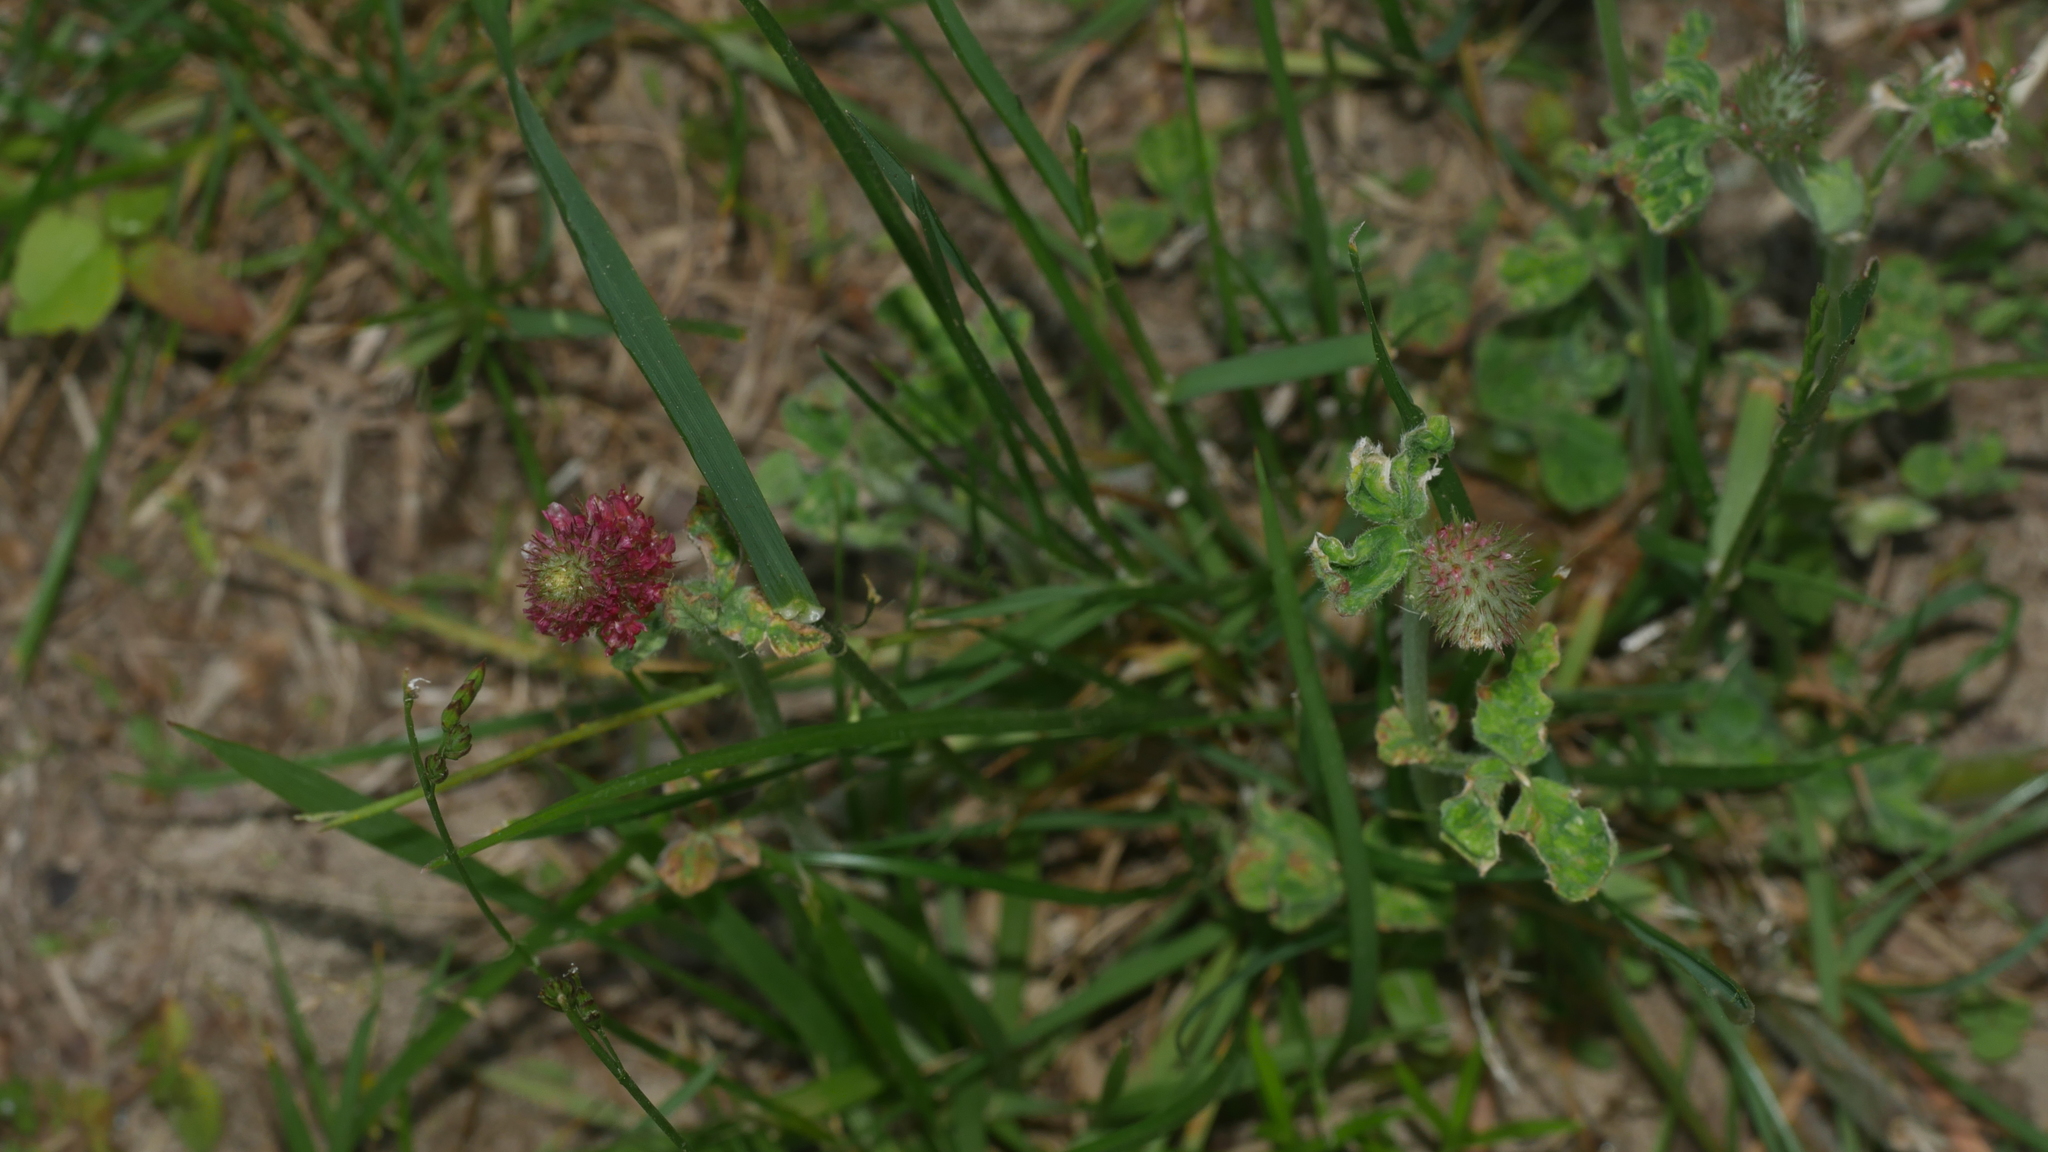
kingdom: Plantae
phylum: Tracheophyta
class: Magnoliopsida
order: Fabales
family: Fabaceae
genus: Trifolium
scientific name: Trifolium incarnatum
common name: Crimson clover
